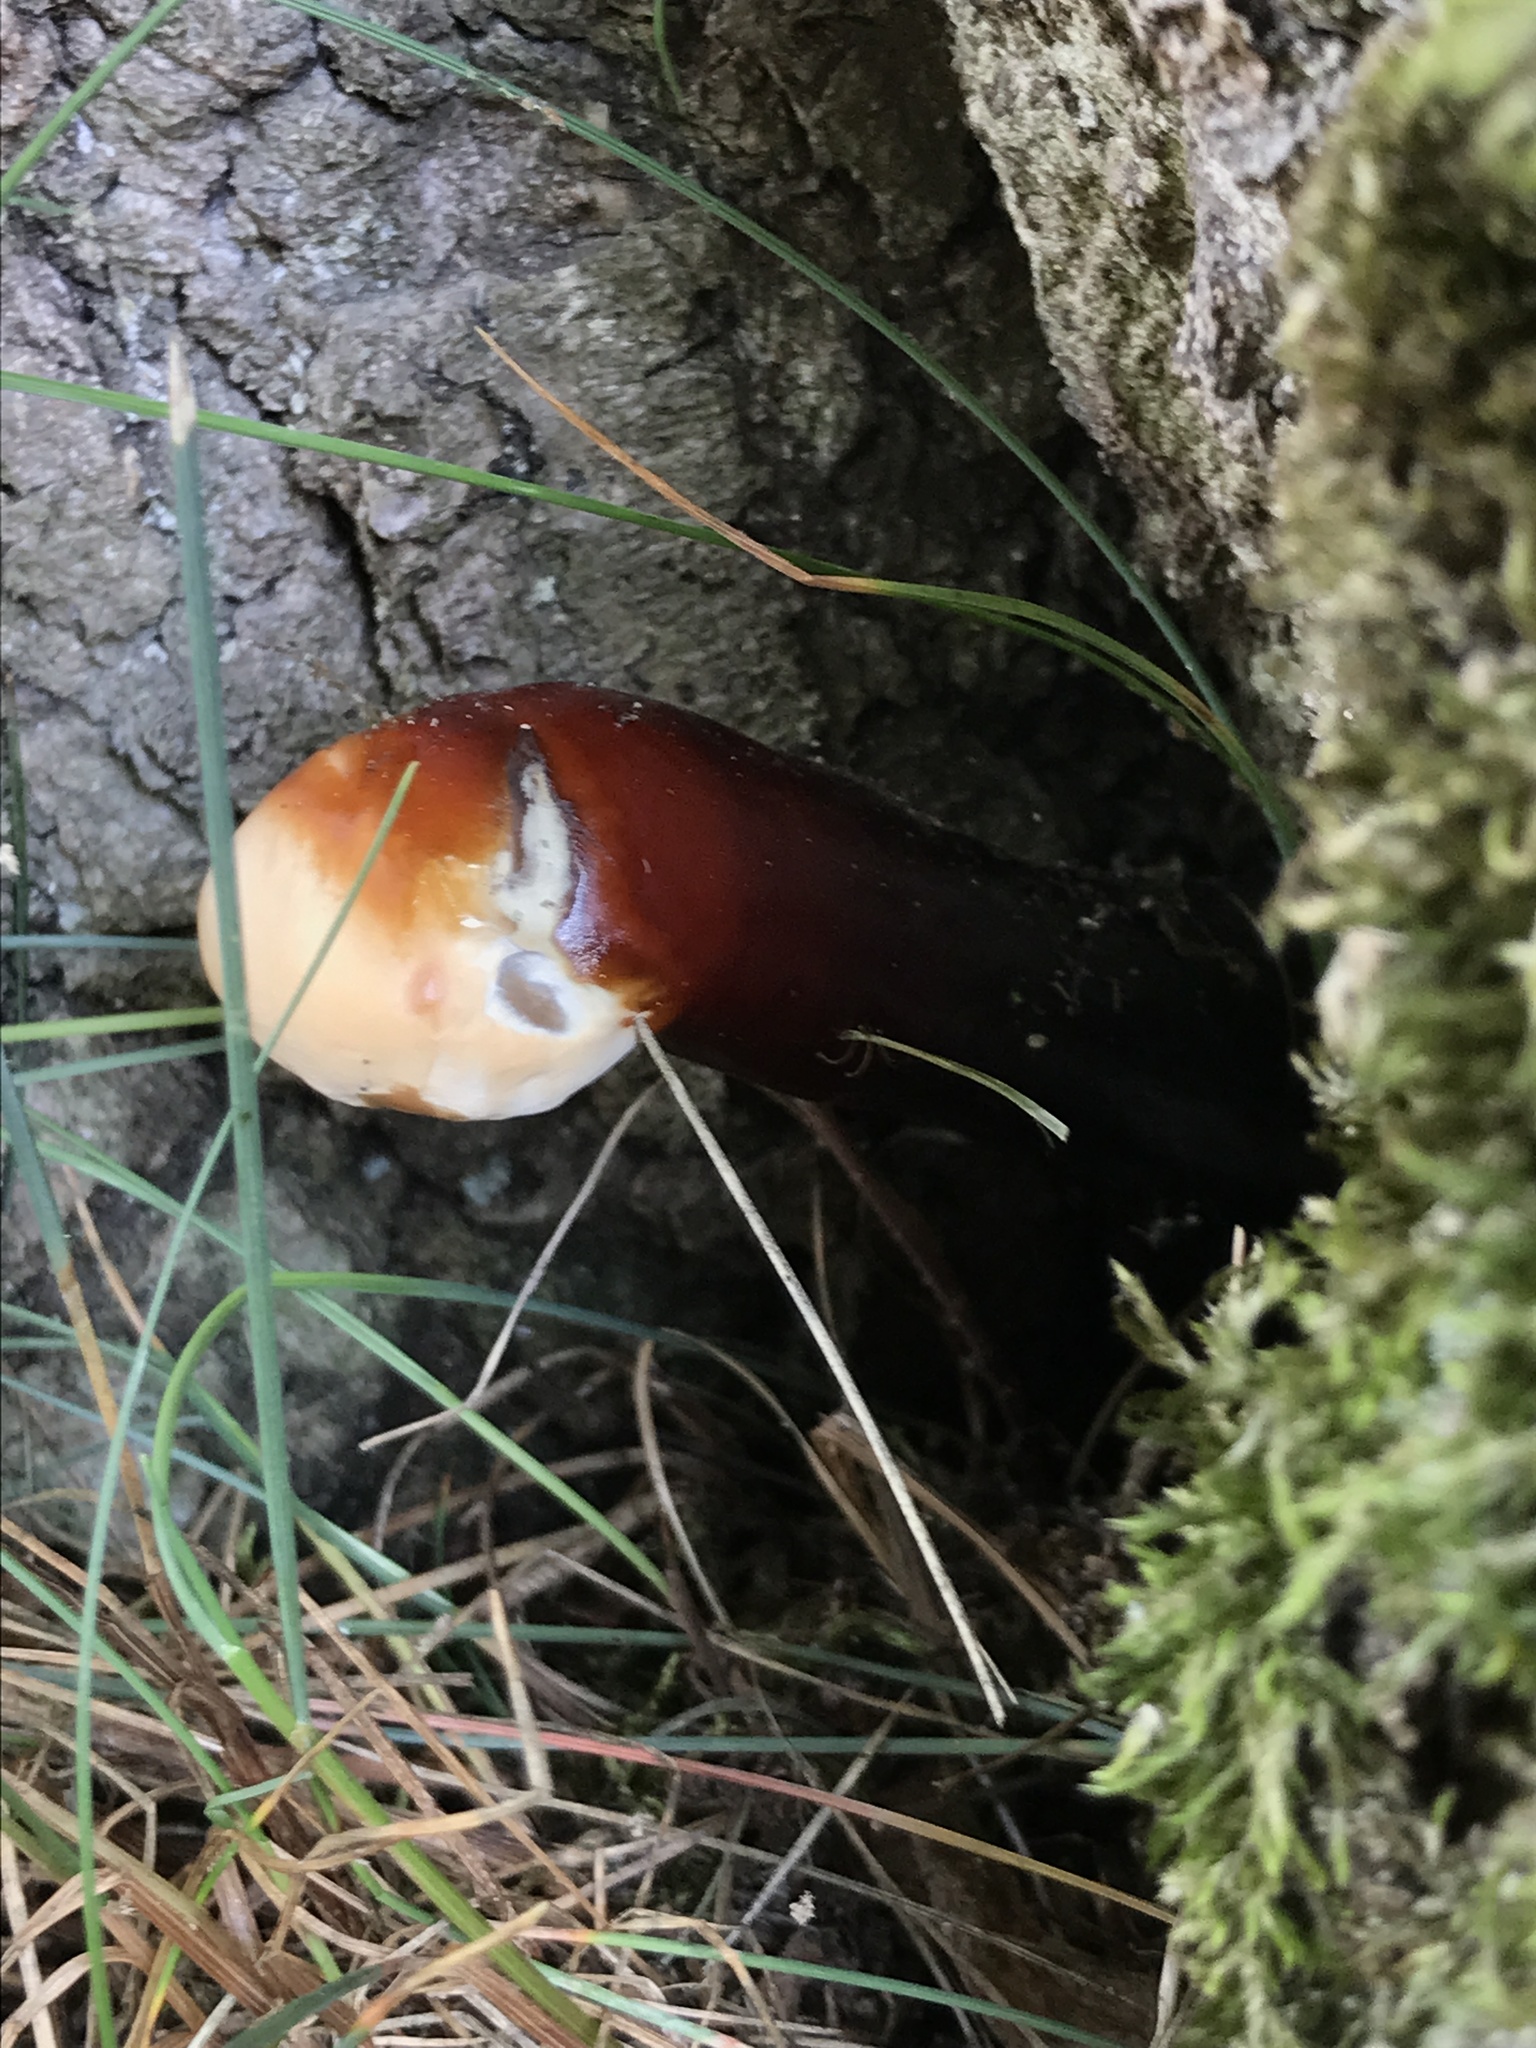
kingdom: Fungi
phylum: Basidiomycota
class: Agaricomycetes
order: Polyporales
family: Polyporaceae
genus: Ganoderma
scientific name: Ganoderma lucidum
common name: Lacquered bracket
